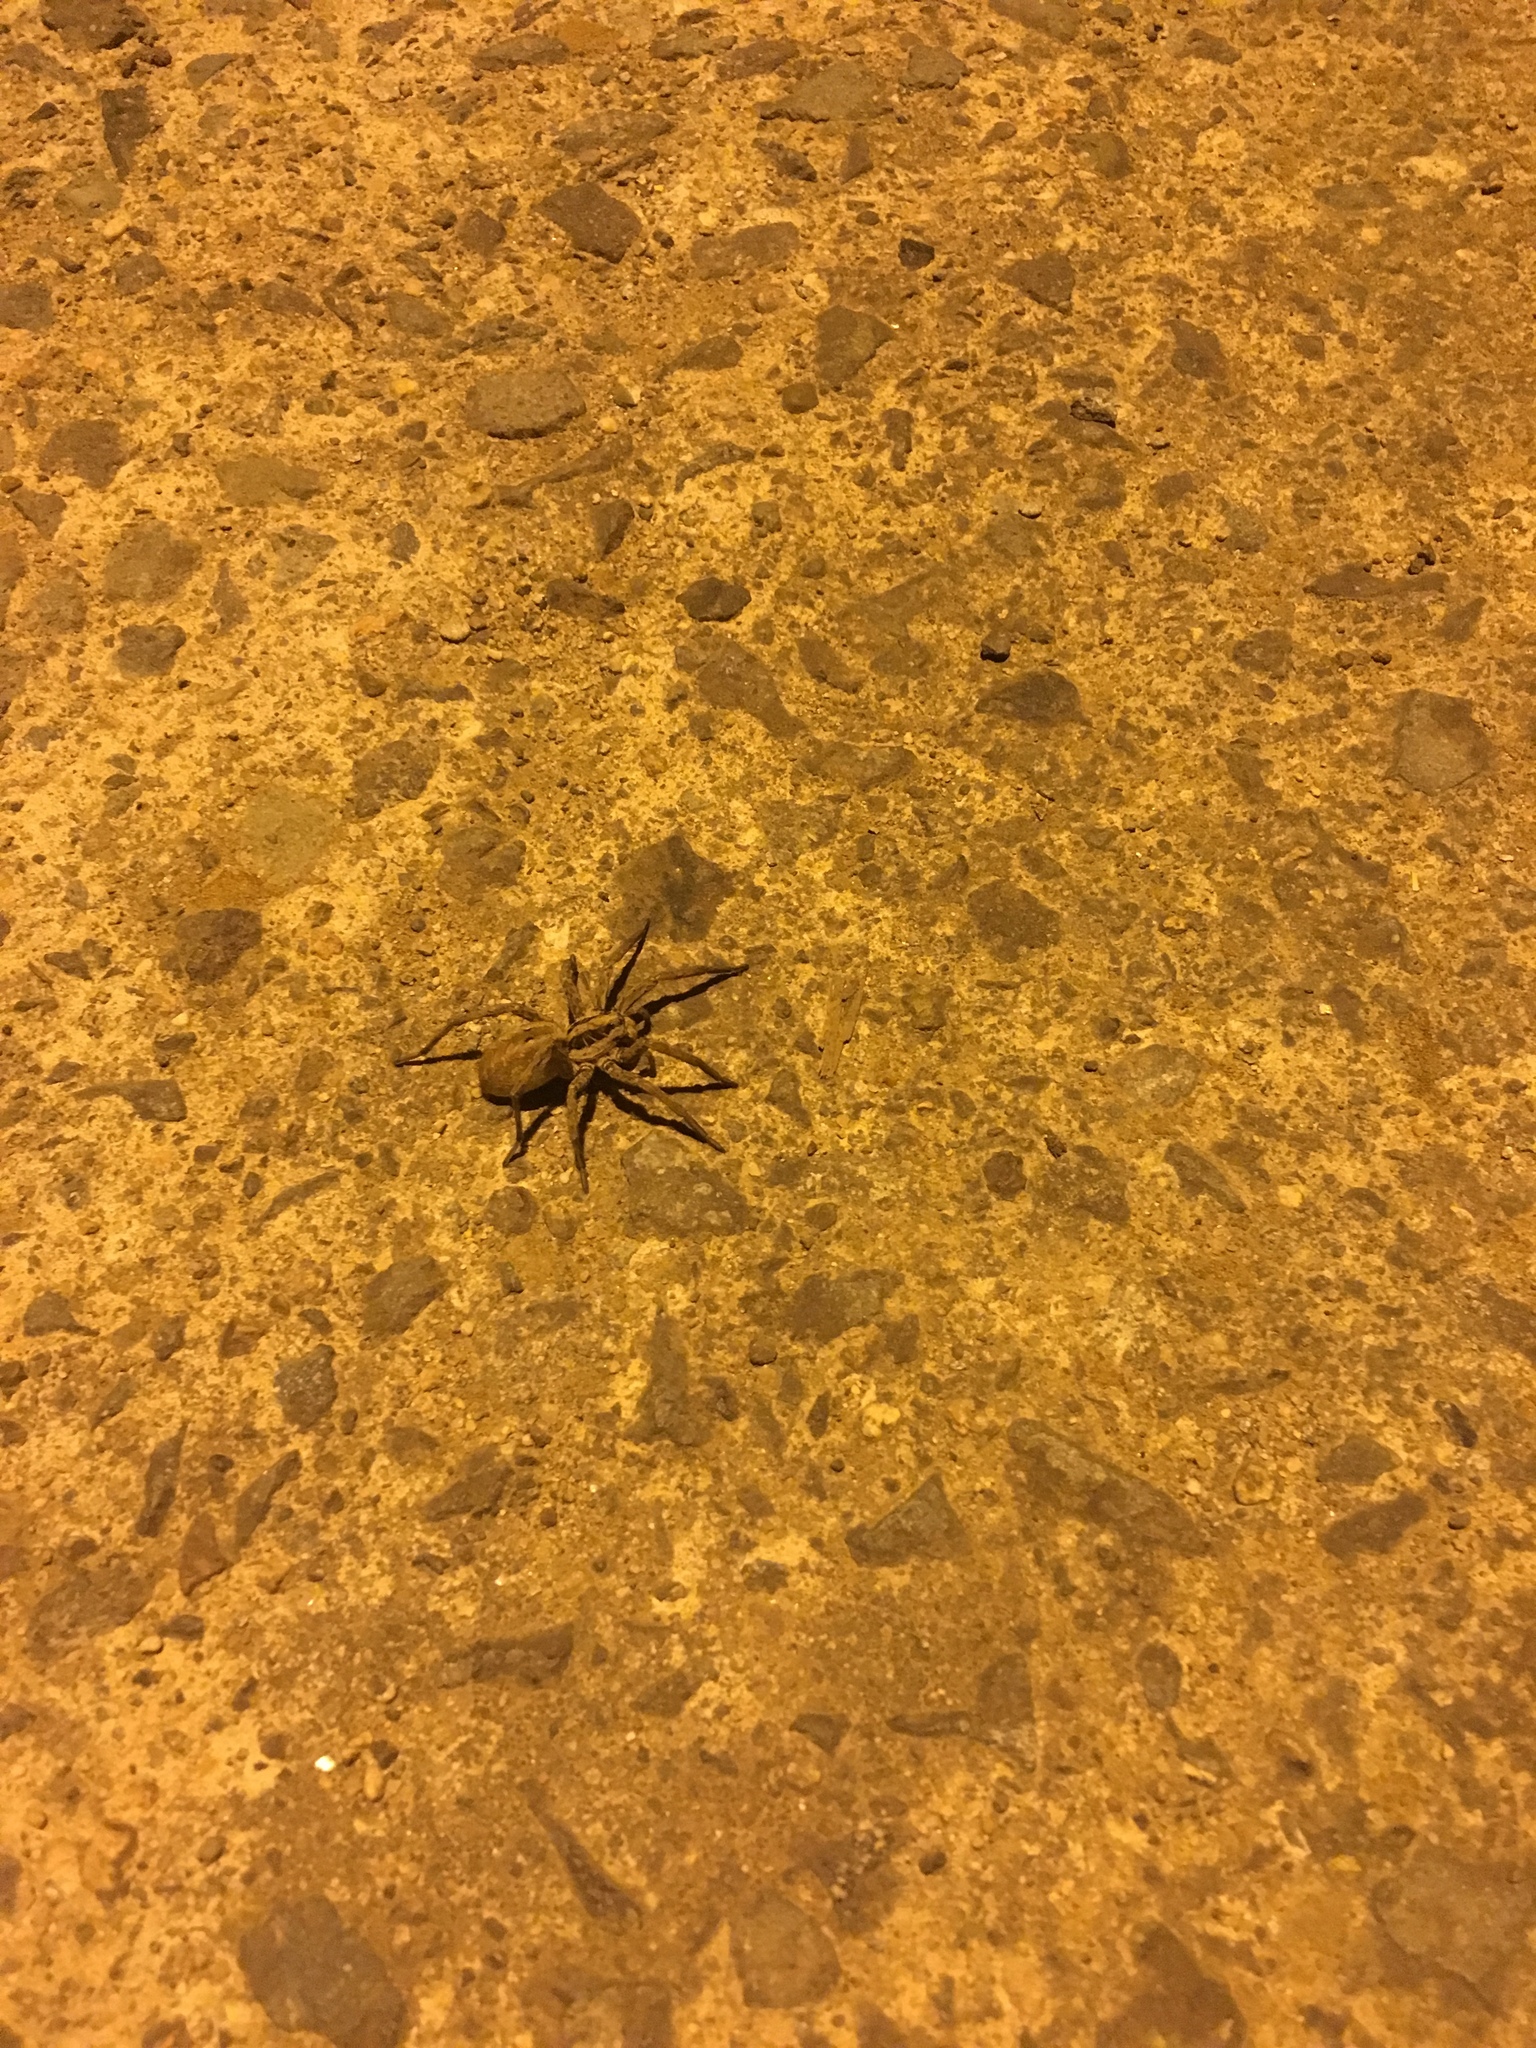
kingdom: Animalia
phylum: Arthropoda
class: Arachnida
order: Araneae
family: Lycosidae
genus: Hogna
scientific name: Hogna radiata
